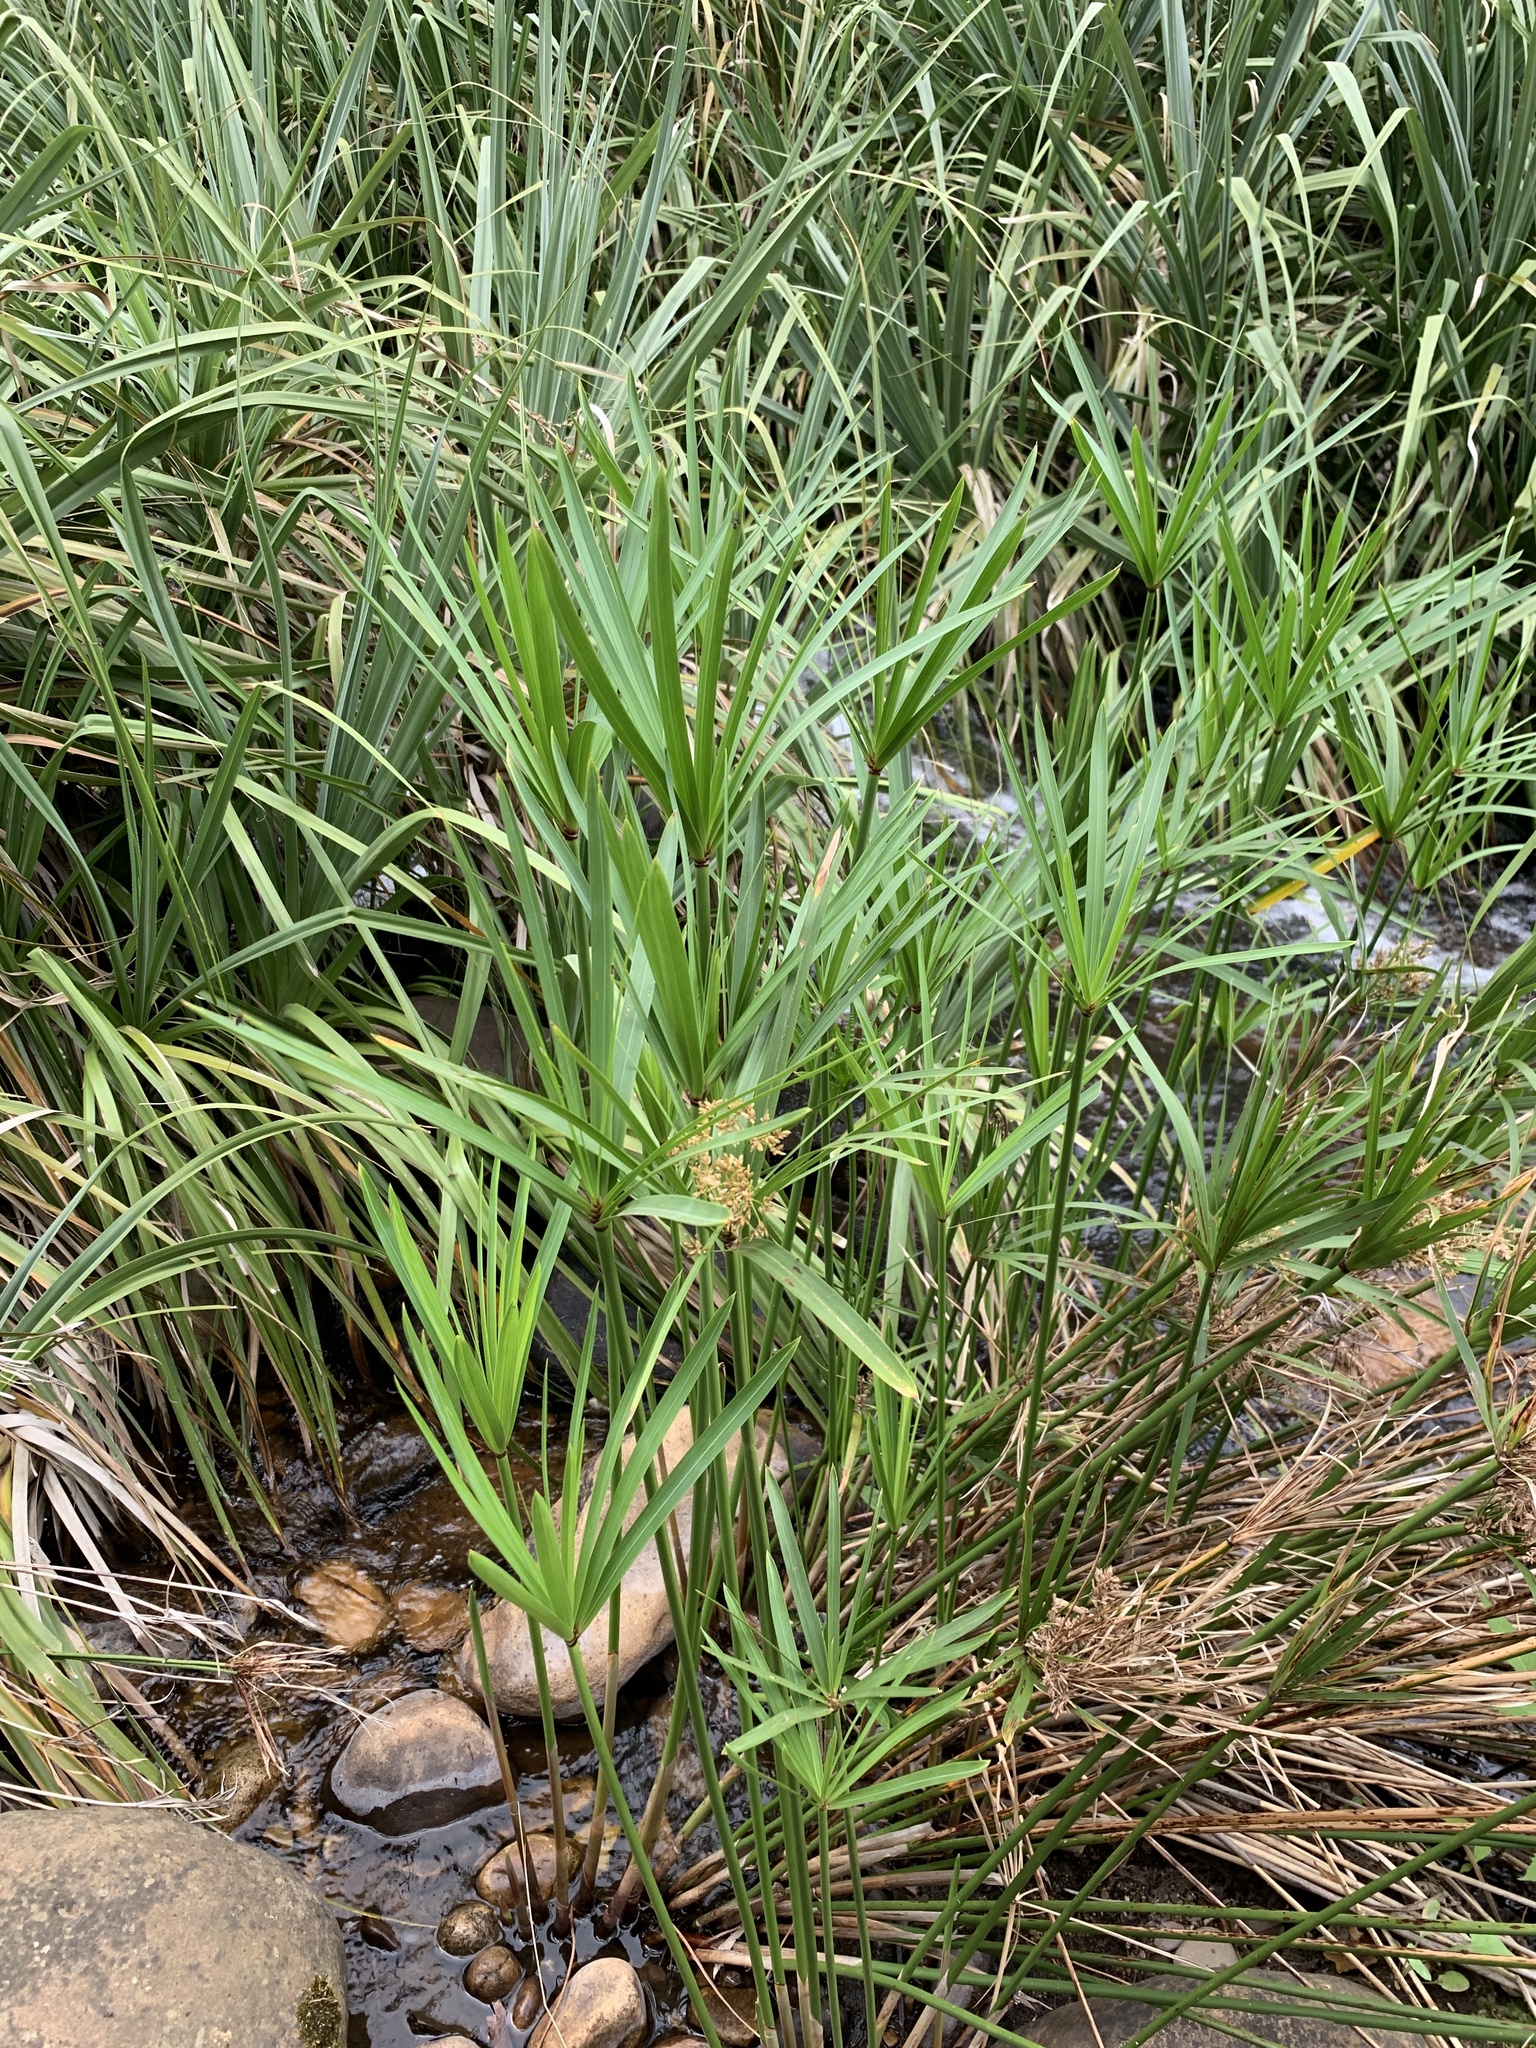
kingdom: Plantae
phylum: Tracheophyta
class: Liliopsida
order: Poales
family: Cyperaceae
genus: Cyperus
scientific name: Cyperus textilis
